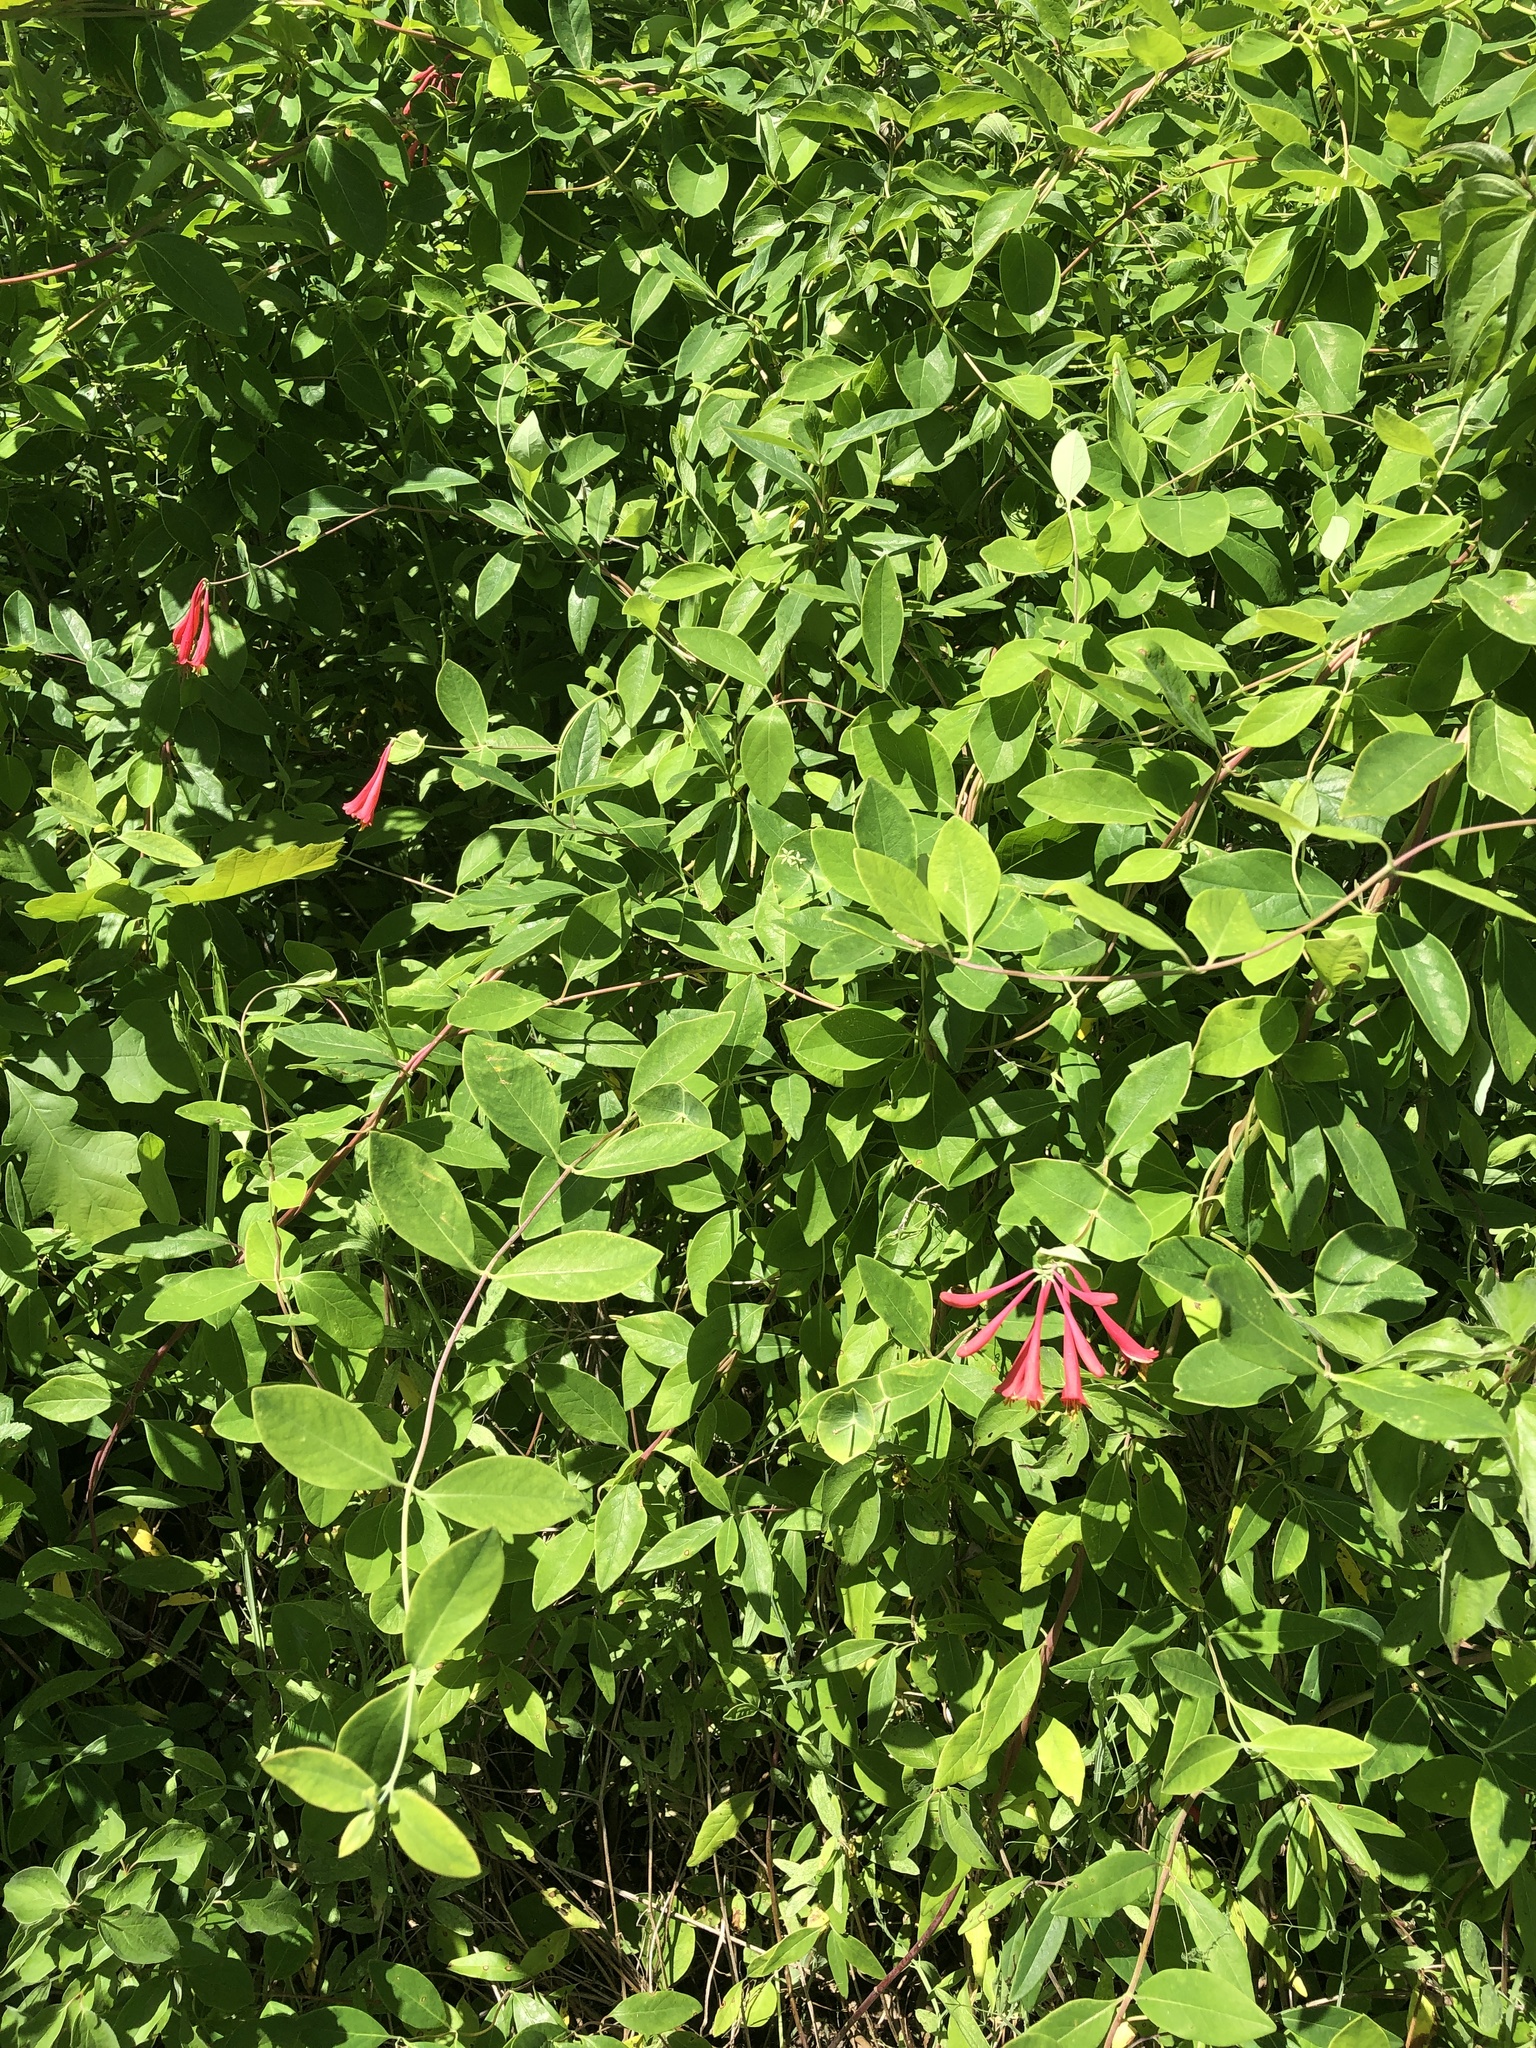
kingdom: Plantae
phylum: Tracheophyta
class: Magnoliopsida
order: Dipsacales
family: Caprifoliaceae
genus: Lonicera
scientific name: Lonicera sempervirens
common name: Coral honeysuckle
